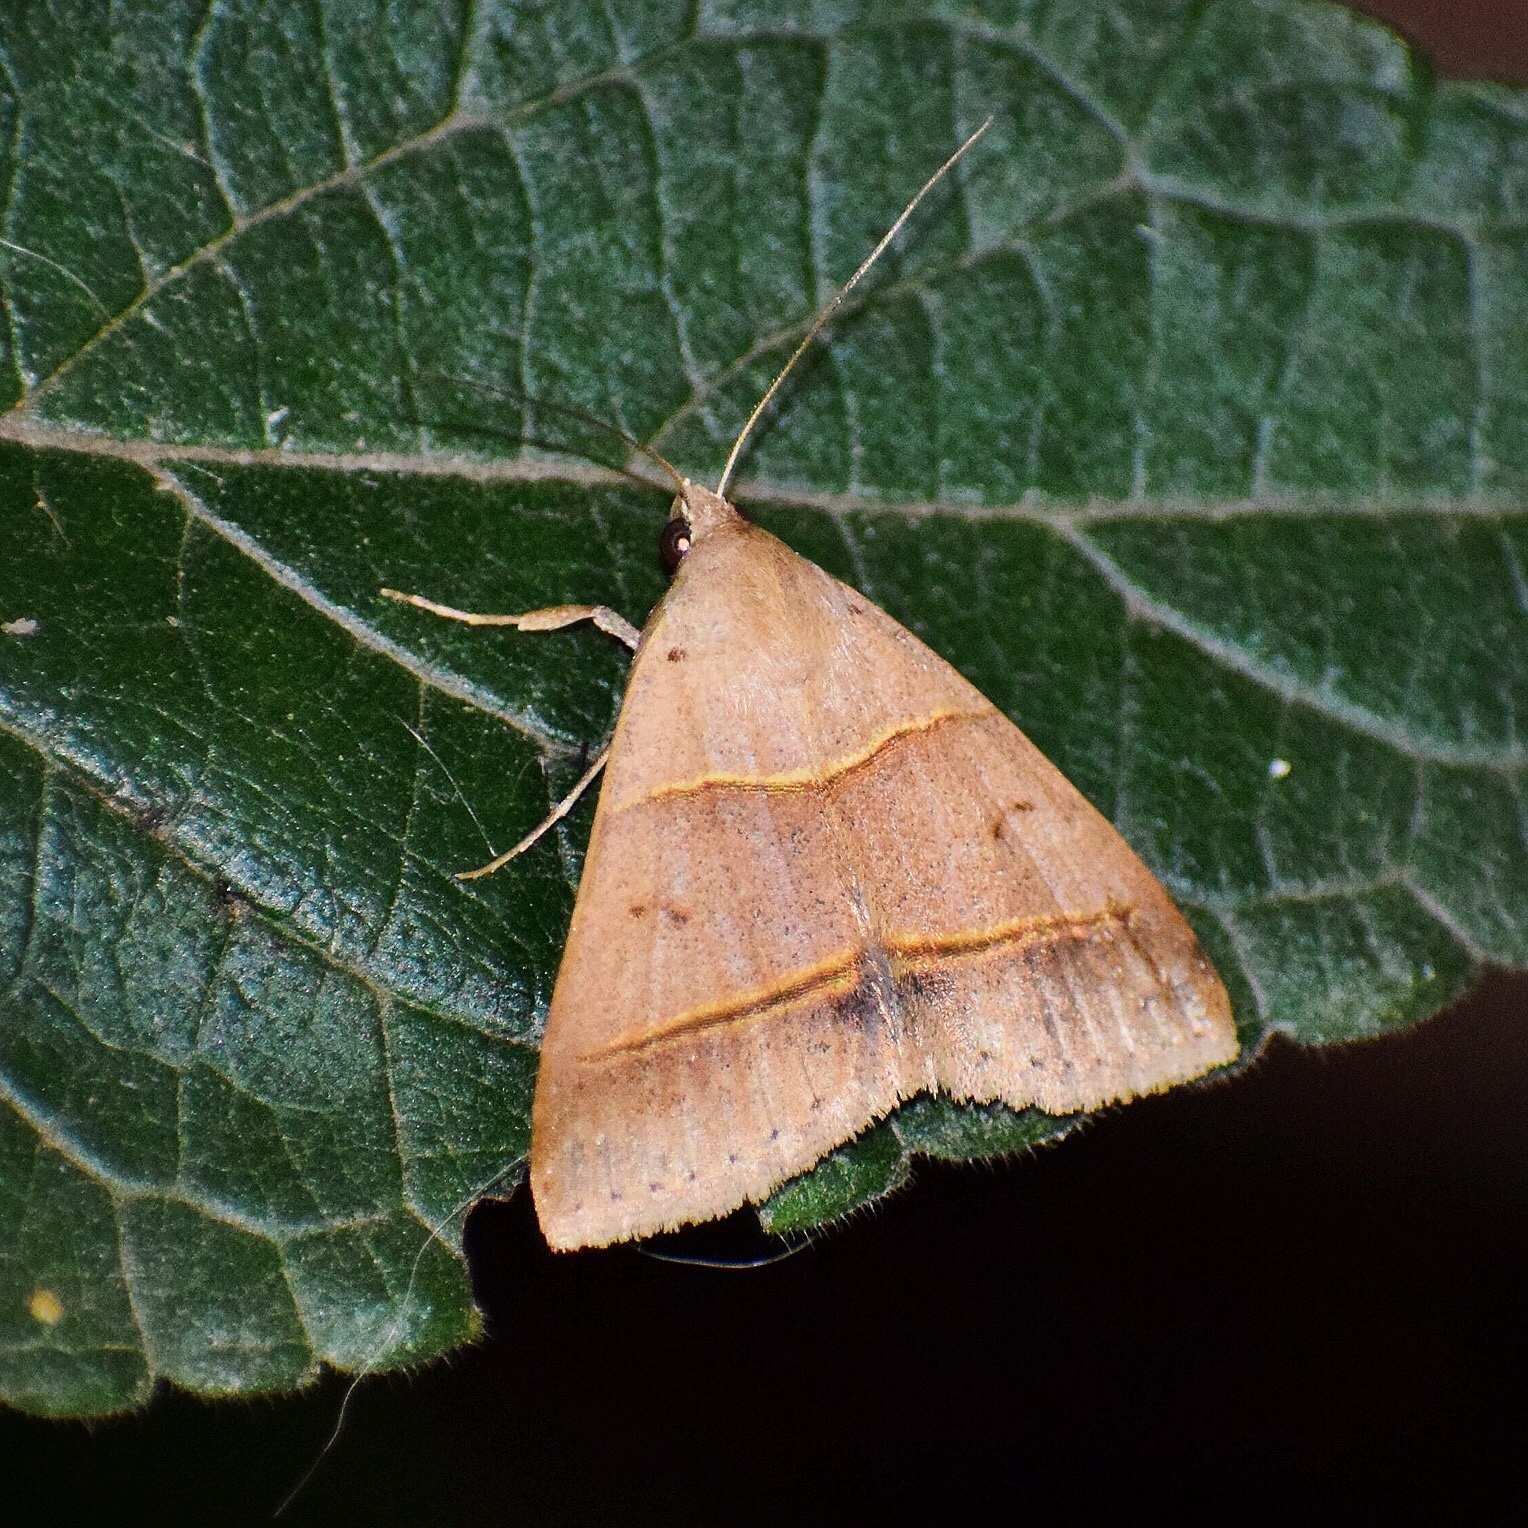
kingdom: Animalia
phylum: Arthropoda
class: Insecta
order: Lepidoptera
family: Erebidae
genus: Plecoptera
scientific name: Plecoptera laniata
